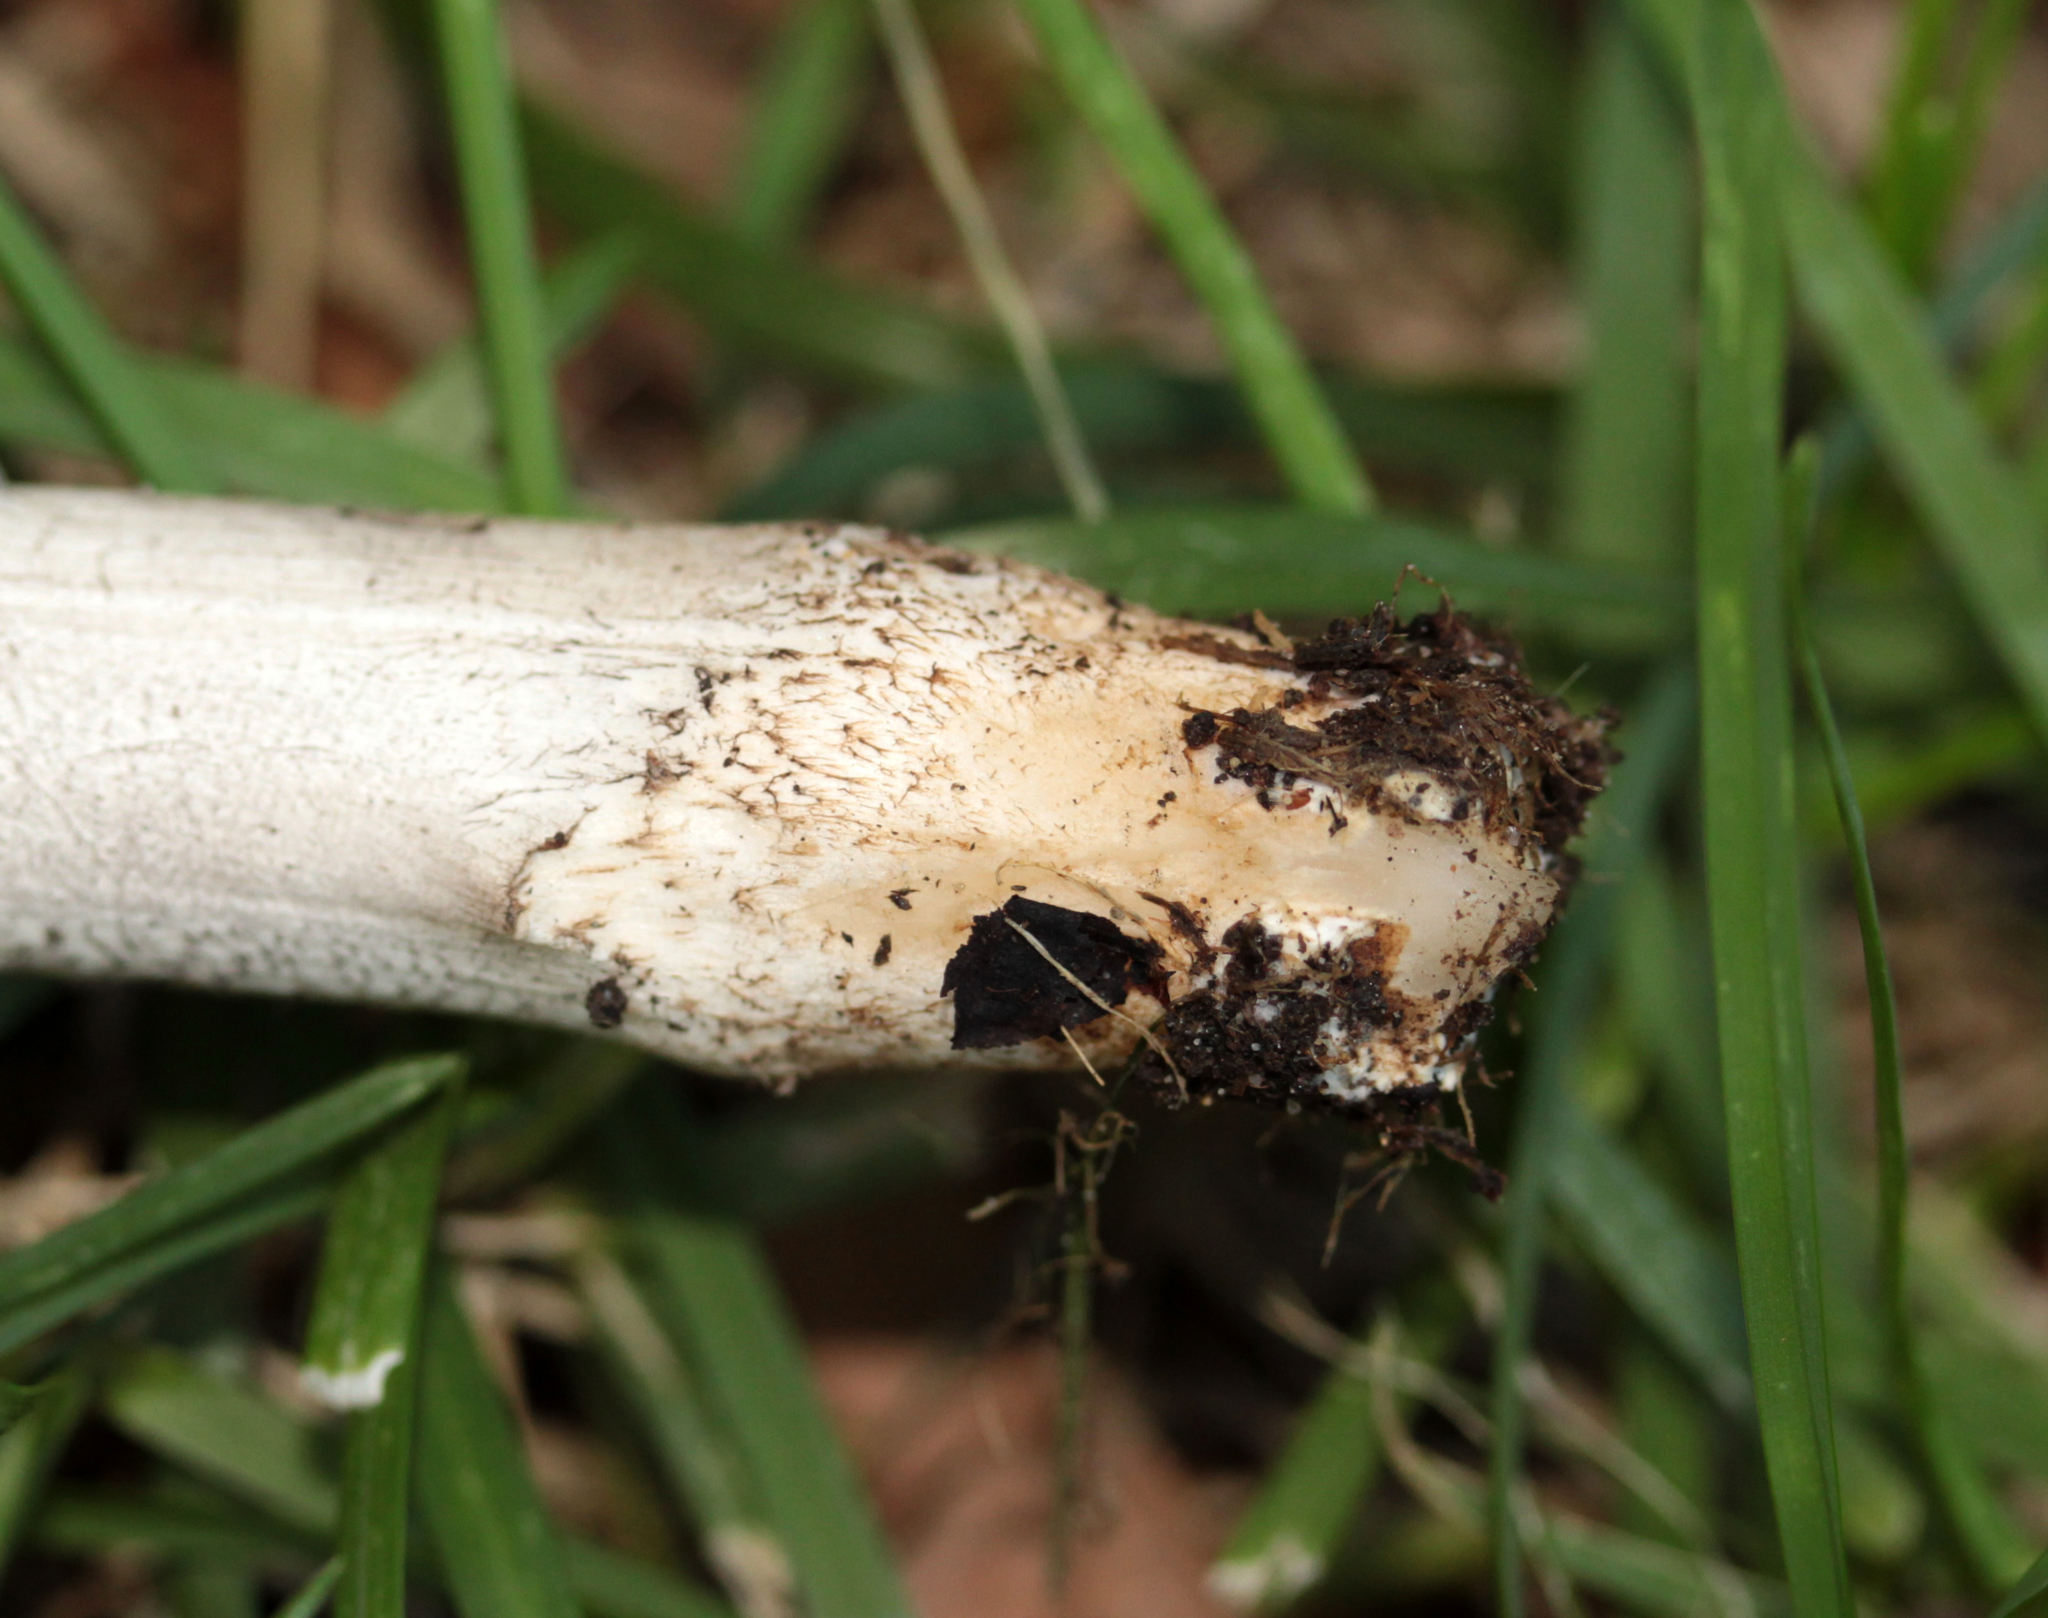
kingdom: Fungi
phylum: Basidiomycota
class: Agaricomycetes
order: Agaricales
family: Psathyrellaceae
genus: Coprinopsis
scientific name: Coprinopsis atramentaria
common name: Common ink-cap
